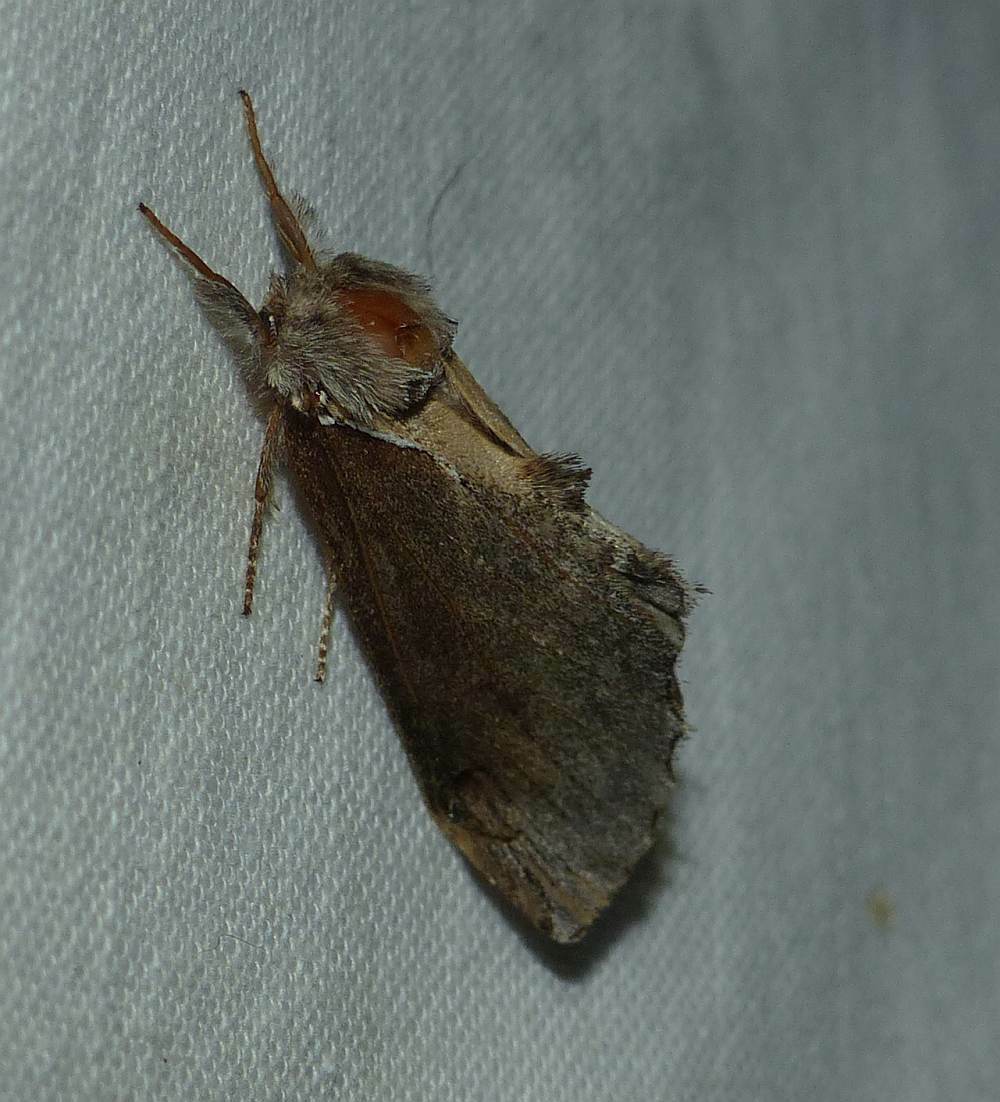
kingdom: Animalia
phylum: Arthropoda
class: Insecta
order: Lepidoptera
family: Notodontidae
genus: Pheosidea
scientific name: Pheosidea elegans
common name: Elegant prominent
